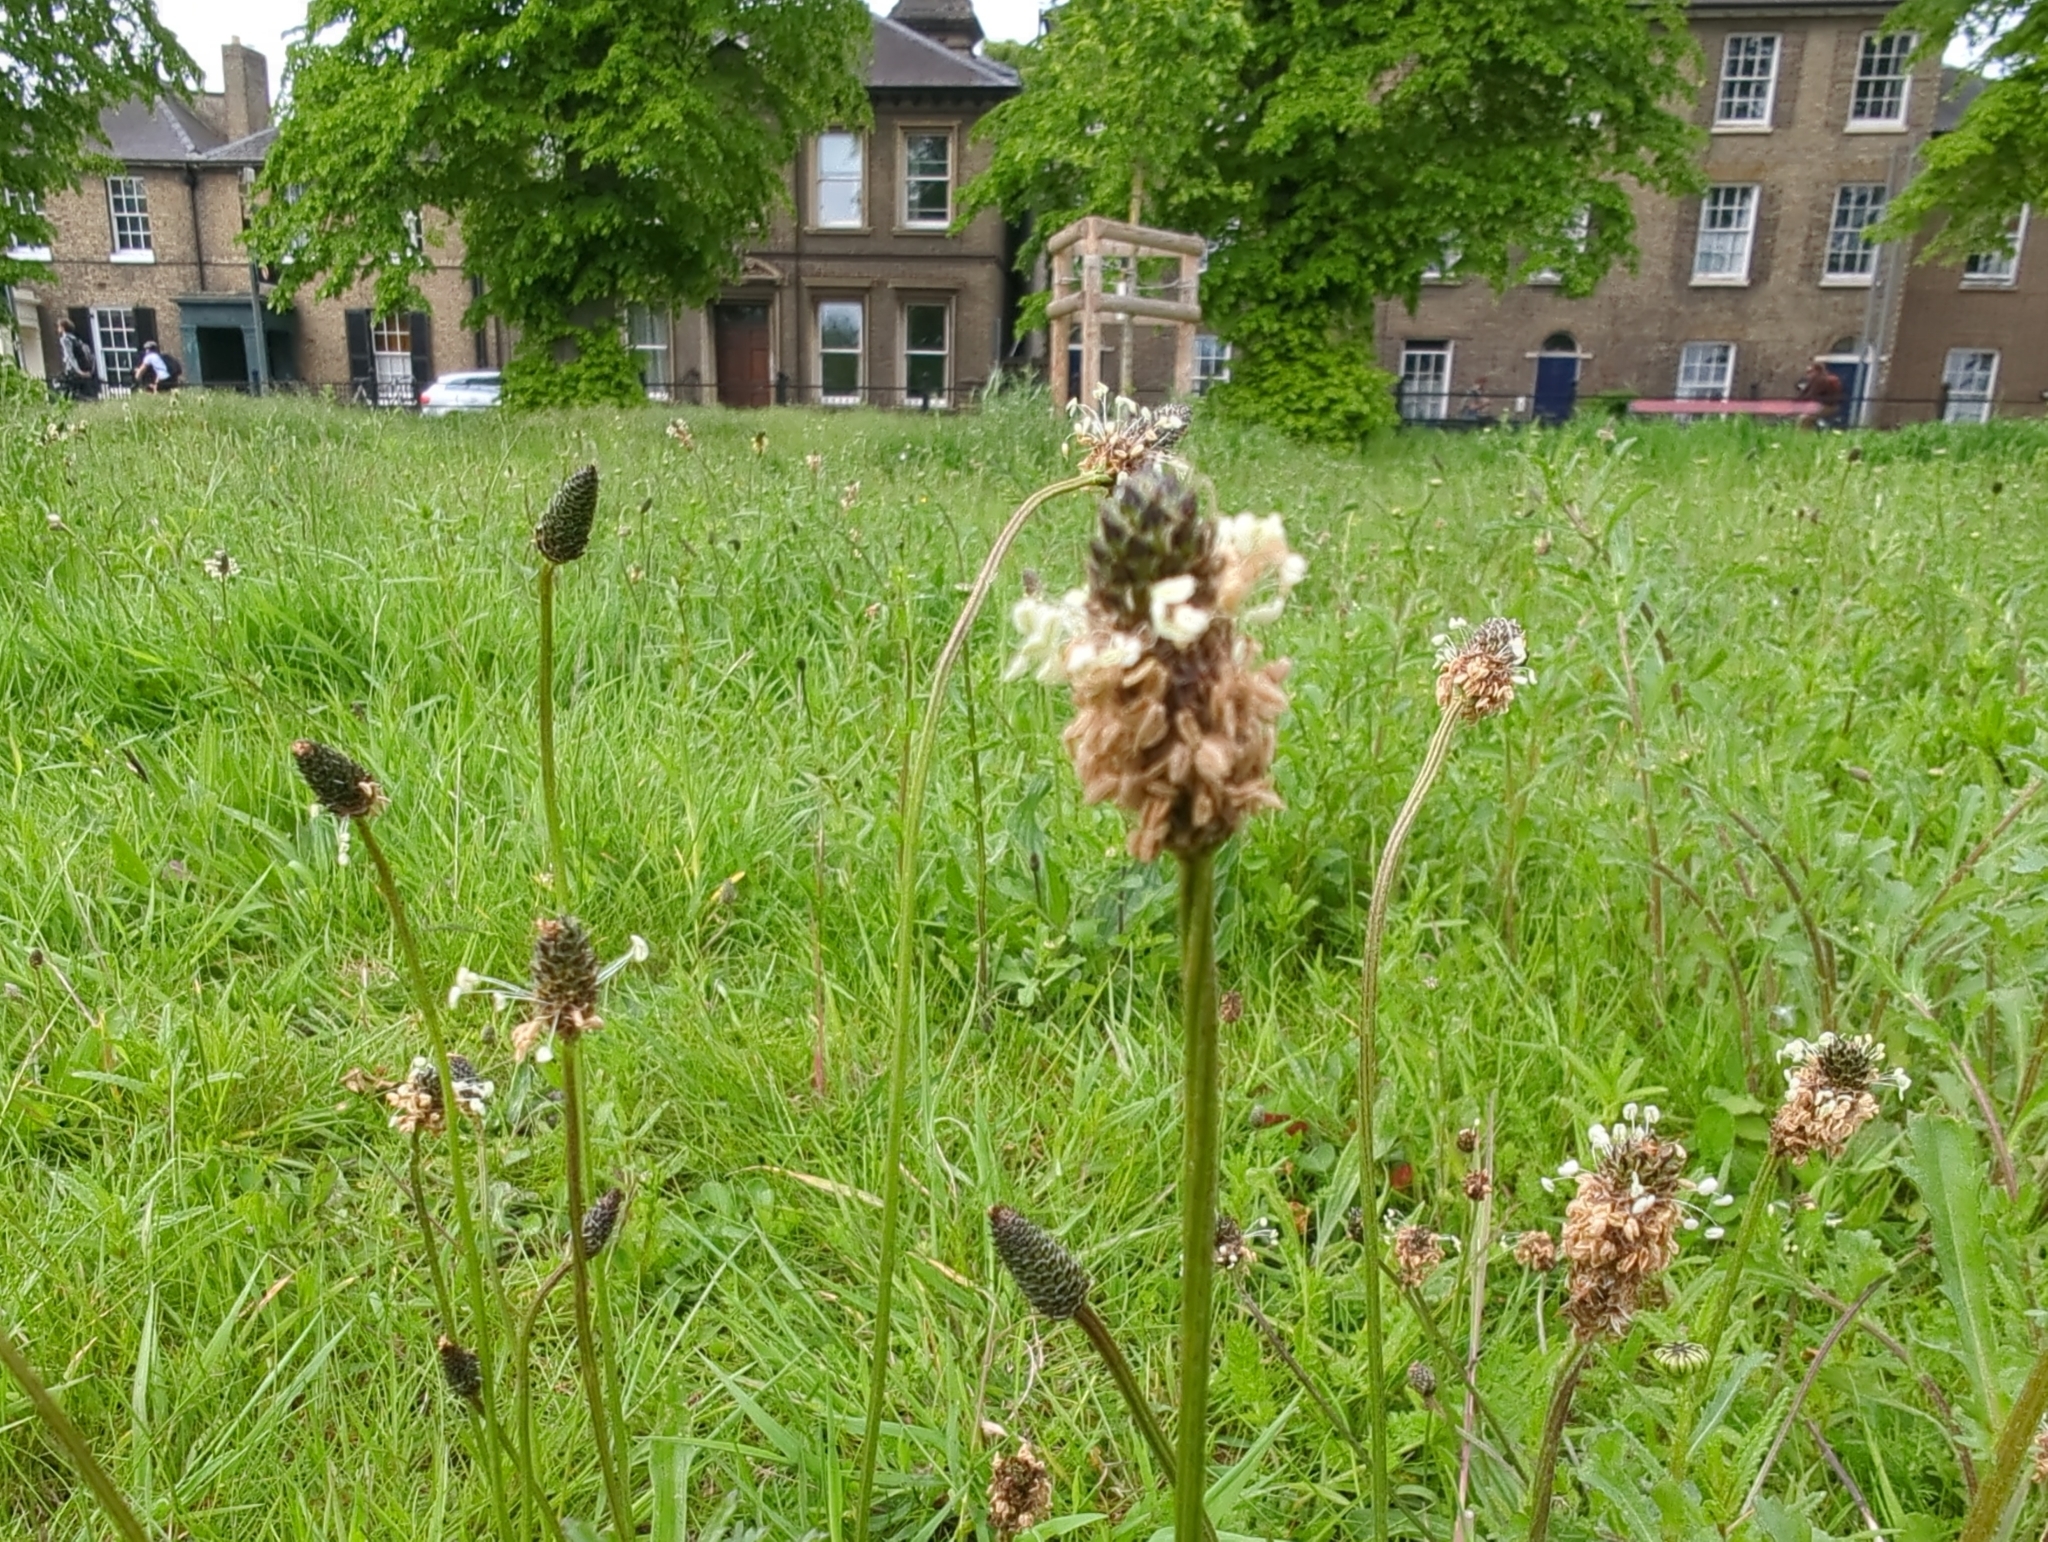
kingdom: Plantae
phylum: Tracheophyta
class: Magnoliopsida
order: Lamiales
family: Plantaginaceae
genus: Plantago
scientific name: Plantago lanceolata
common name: Ribwort plantain
